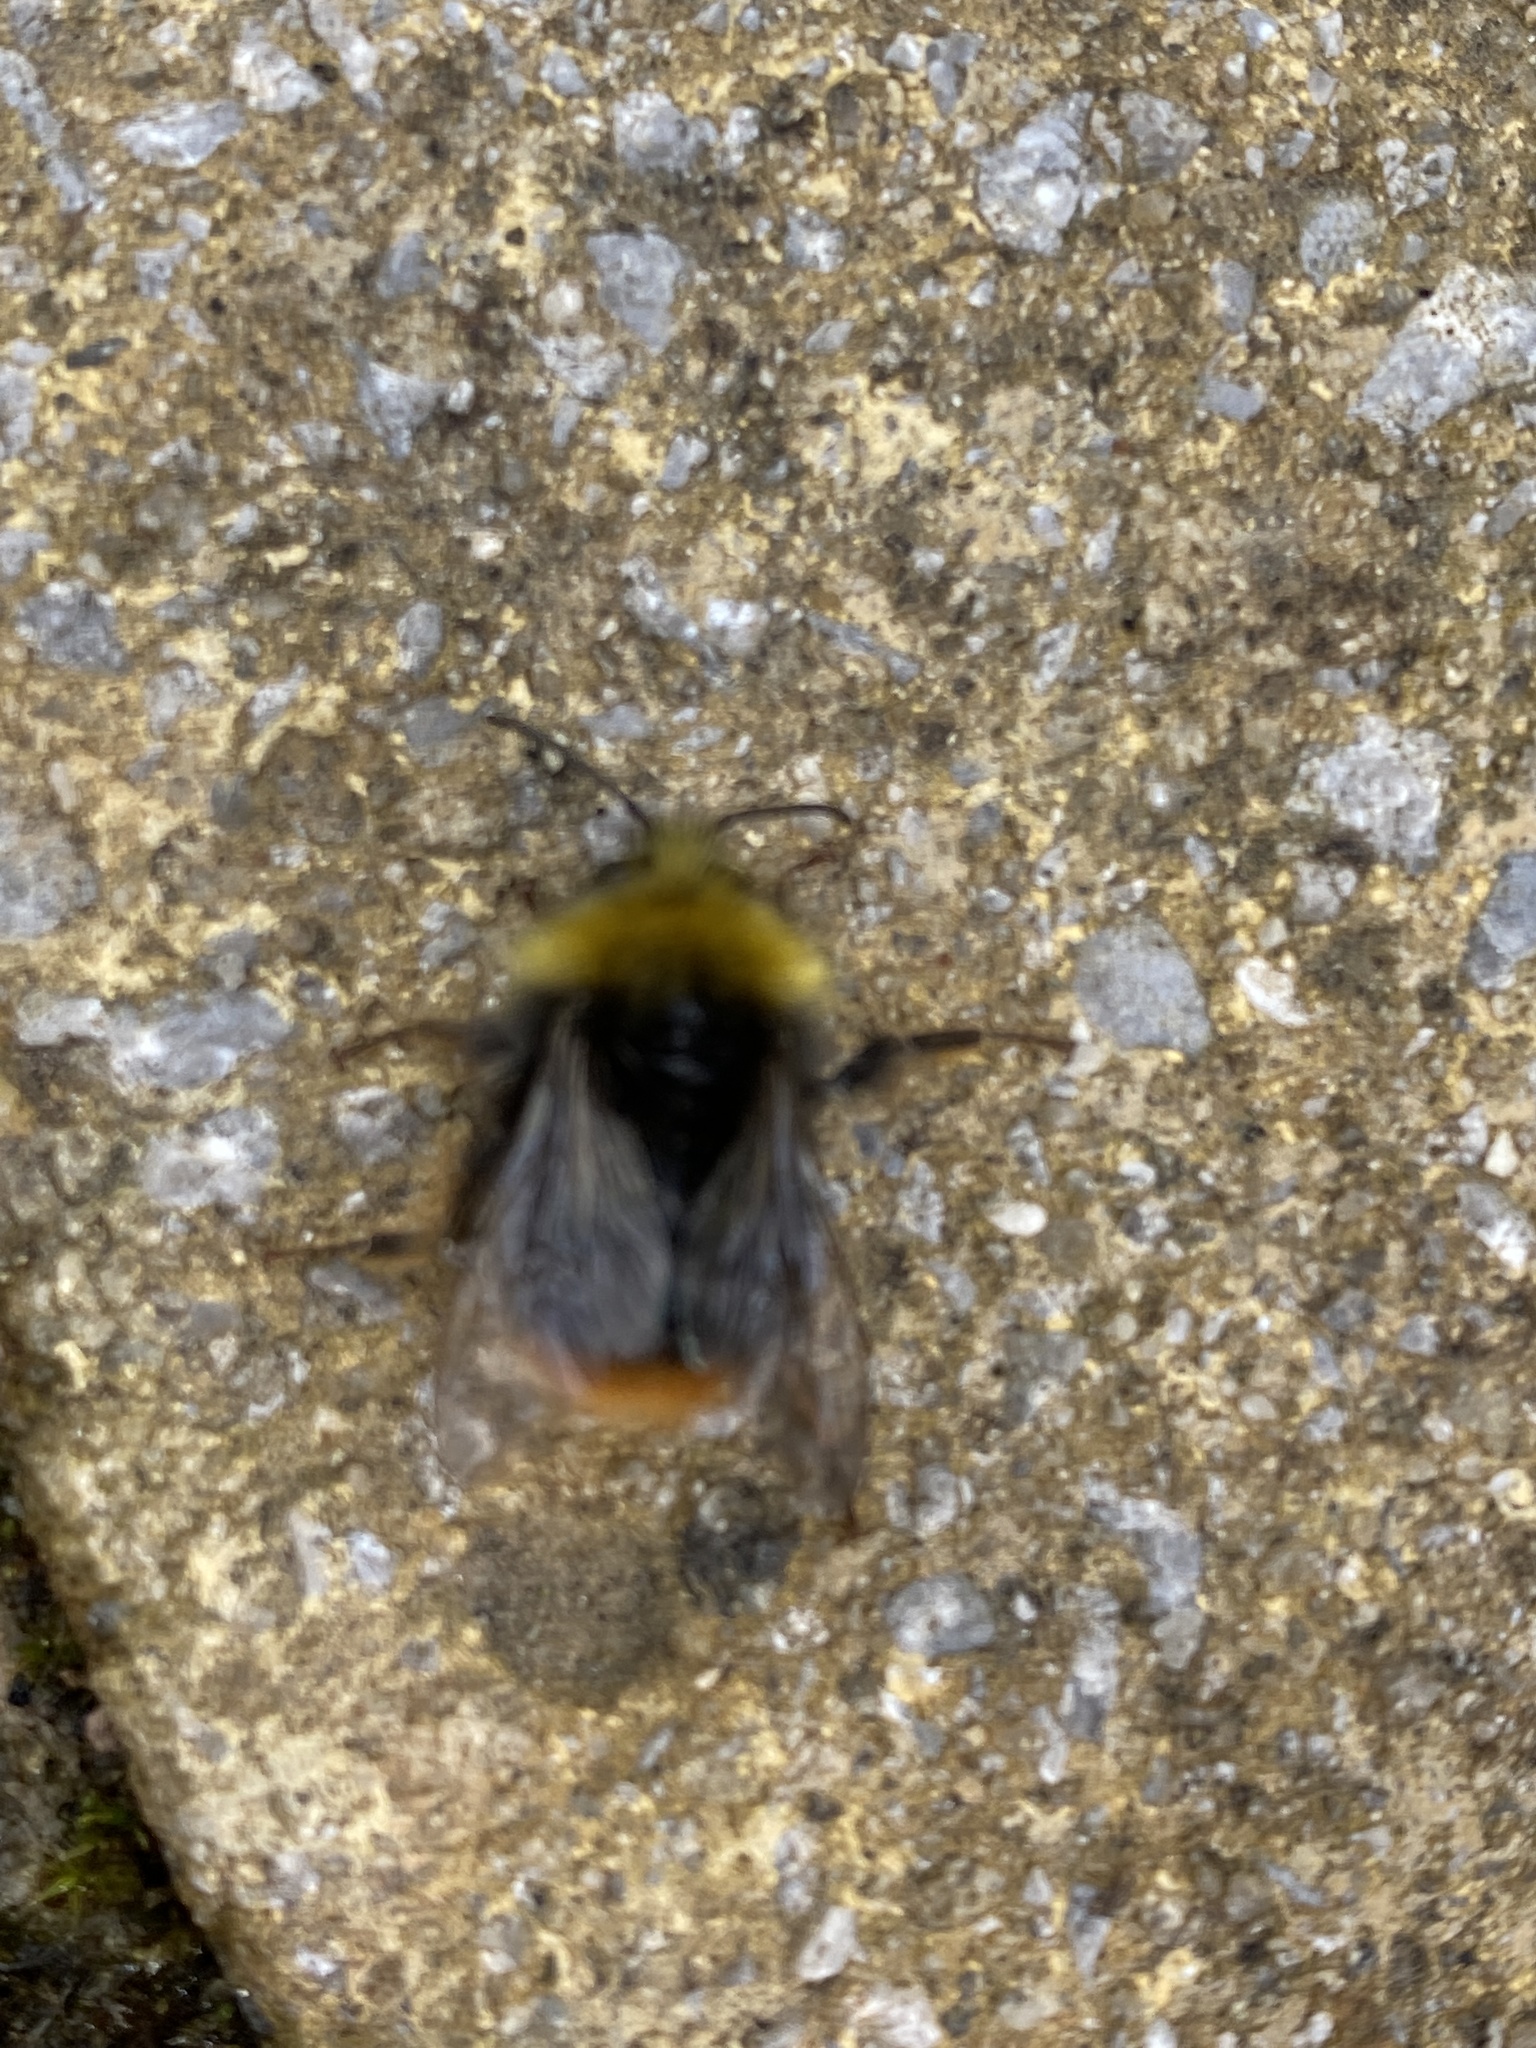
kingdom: Animalia
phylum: Arthropoda
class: Insecta
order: Hymenoptera
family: Apidae
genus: Bombus
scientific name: Bombus pratorum
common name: Early humble-bee
